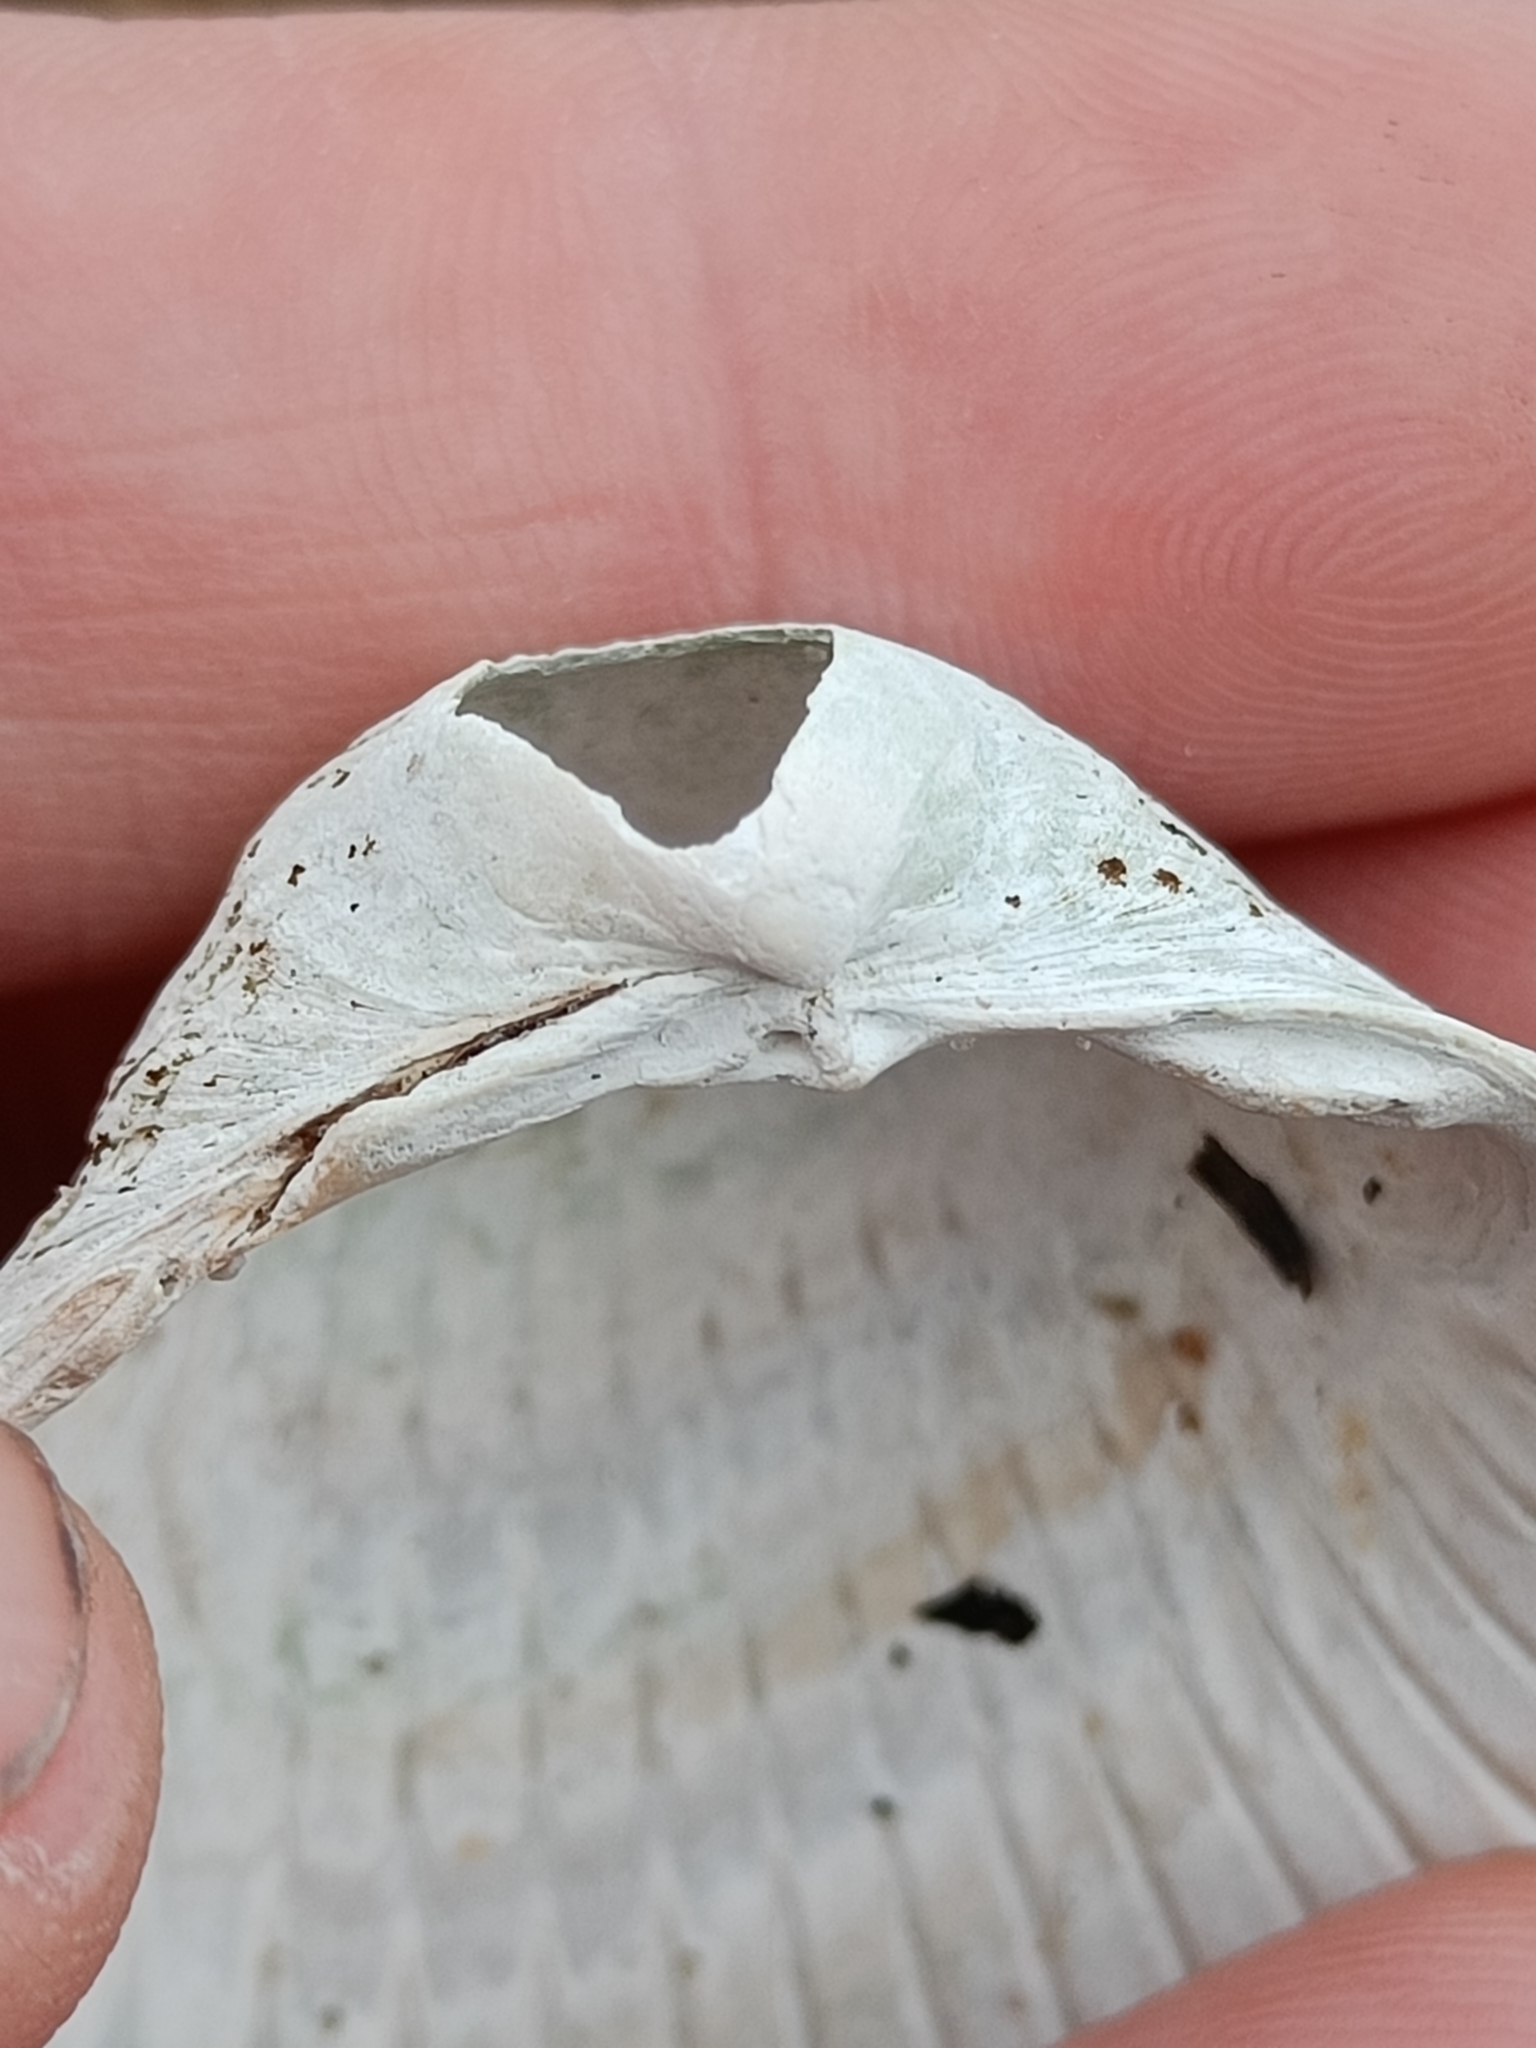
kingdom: Animalia
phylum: Mollusca
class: Bivalvia
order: Cardiida
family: Cardiidae
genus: Cerastoderma
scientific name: Cerastoderma edule
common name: Common cockle
